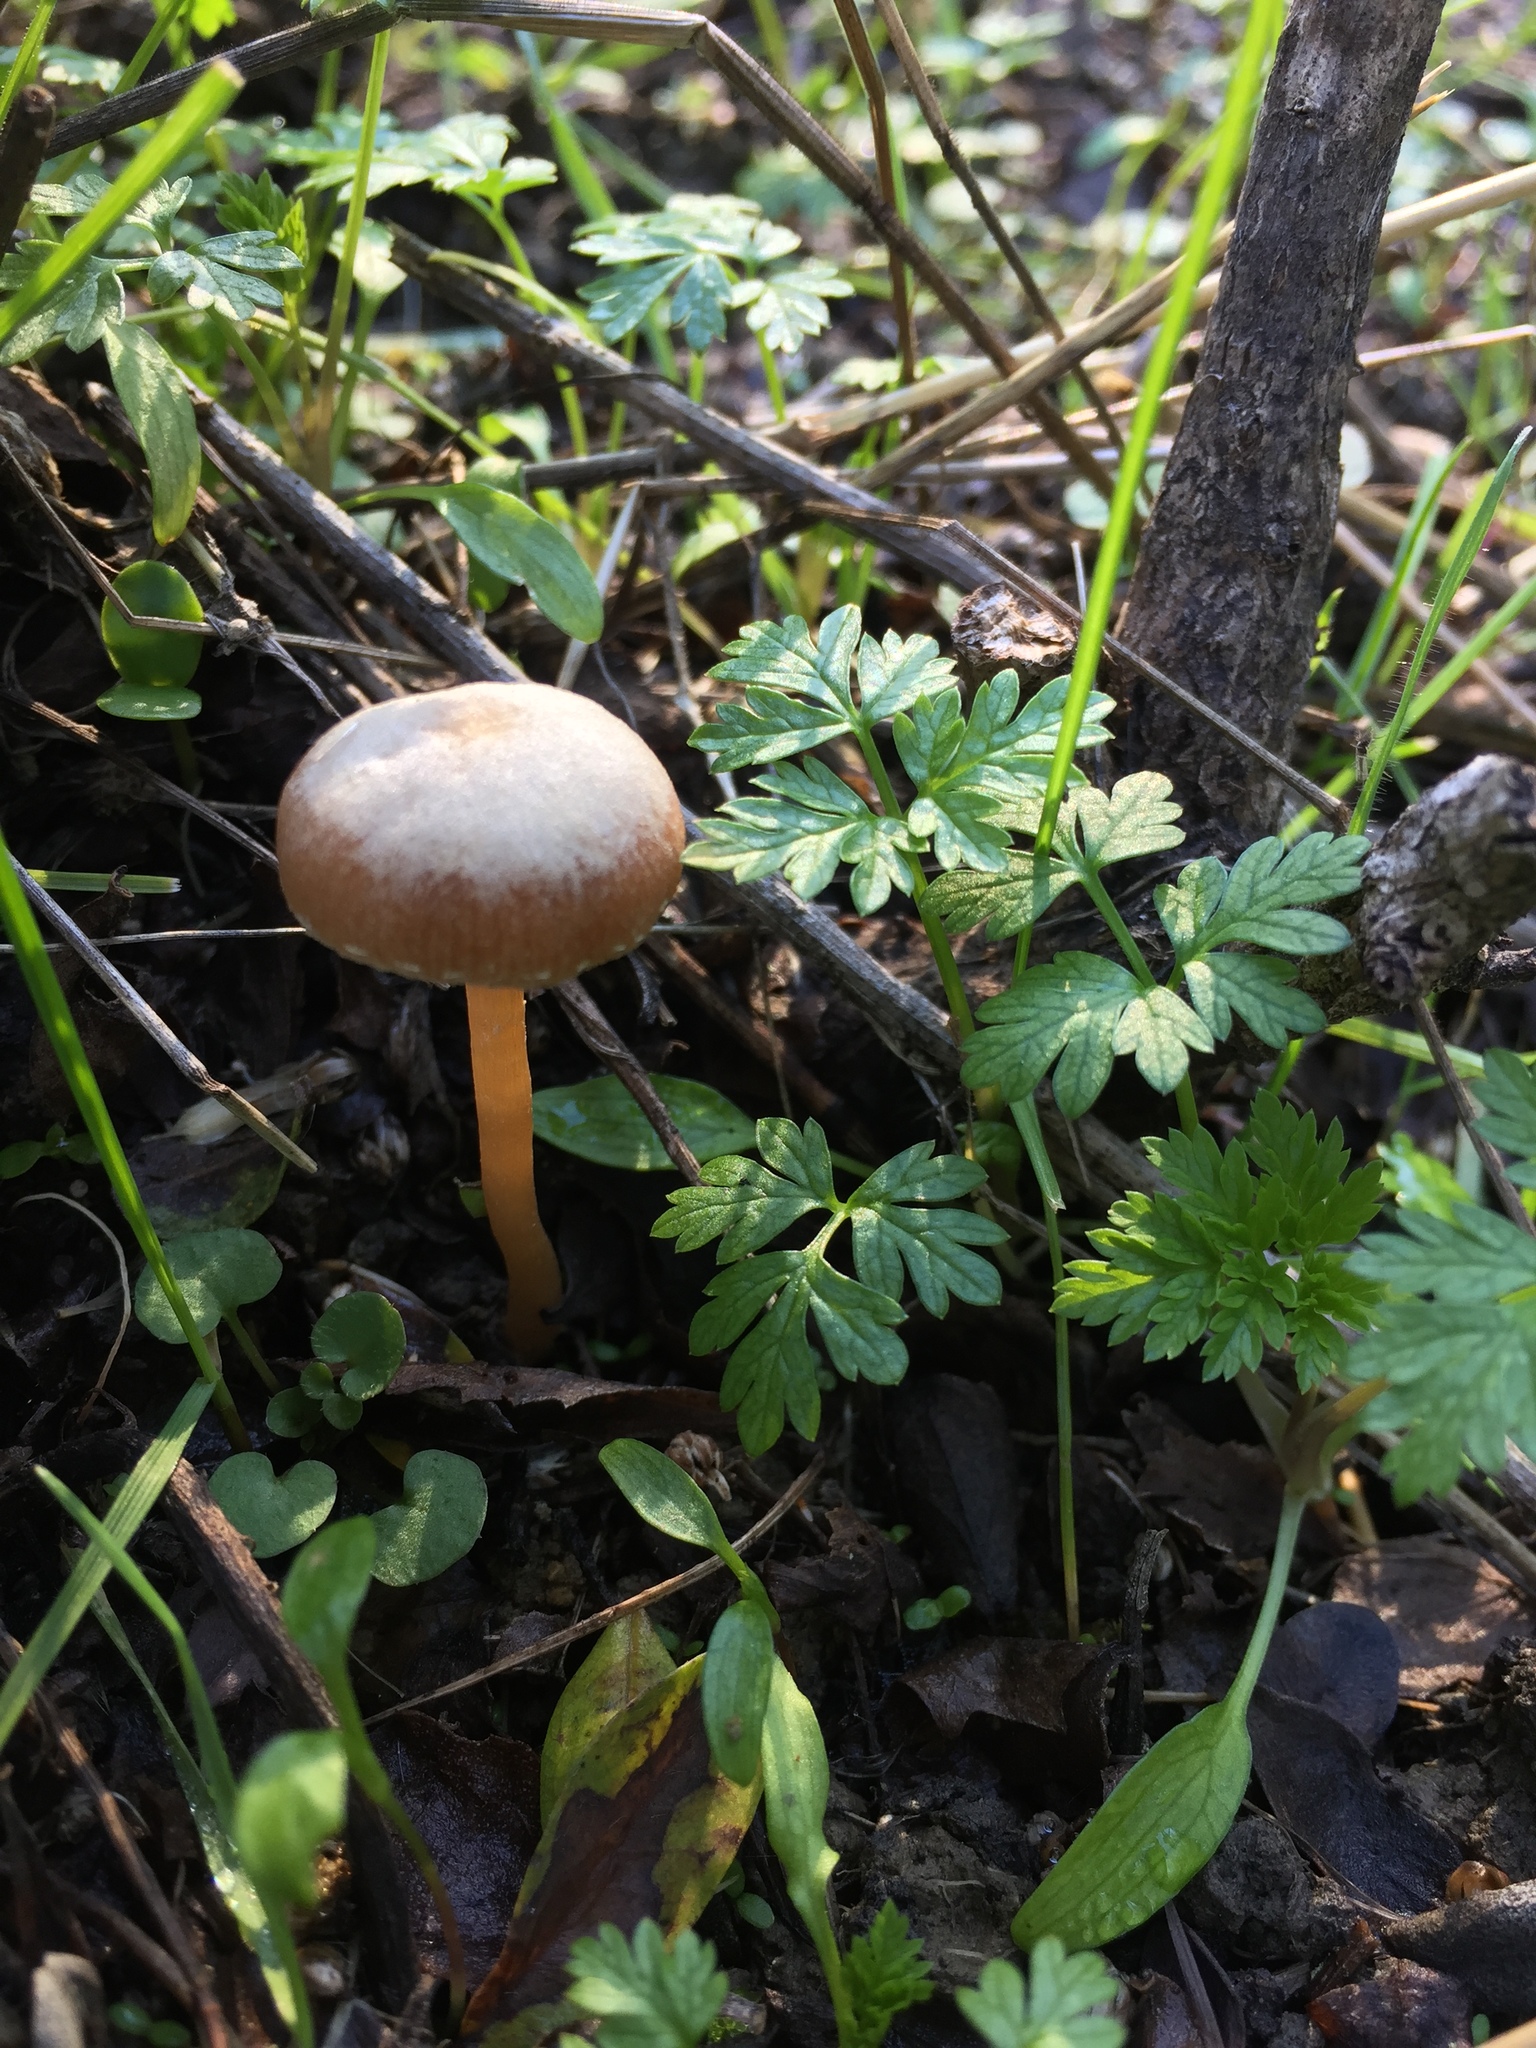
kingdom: Fungi
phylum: Basidiomycota
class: Agaricomycetes
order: Agaricales
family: Tubariaceae
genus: Tubaria
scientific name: Tubaria furfuracea
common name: Scurfy twiglet
